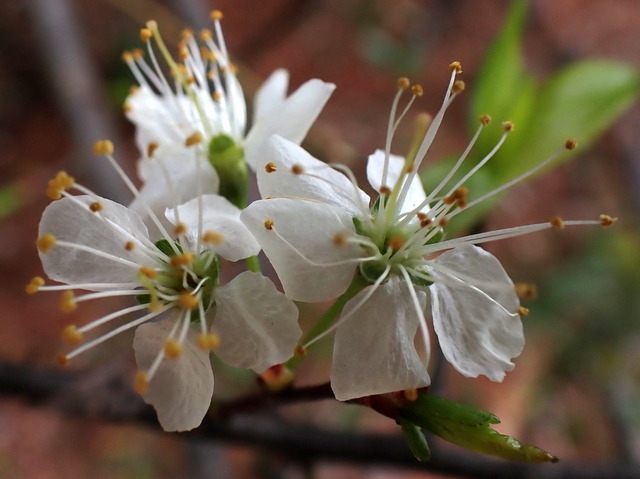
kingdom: Plantae
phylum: Tracheophyta
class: Magnoliopsida
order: Rosales
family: Rosaceae
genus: Prunus
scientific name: Prunus angustifolia
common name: Cherokee plum
